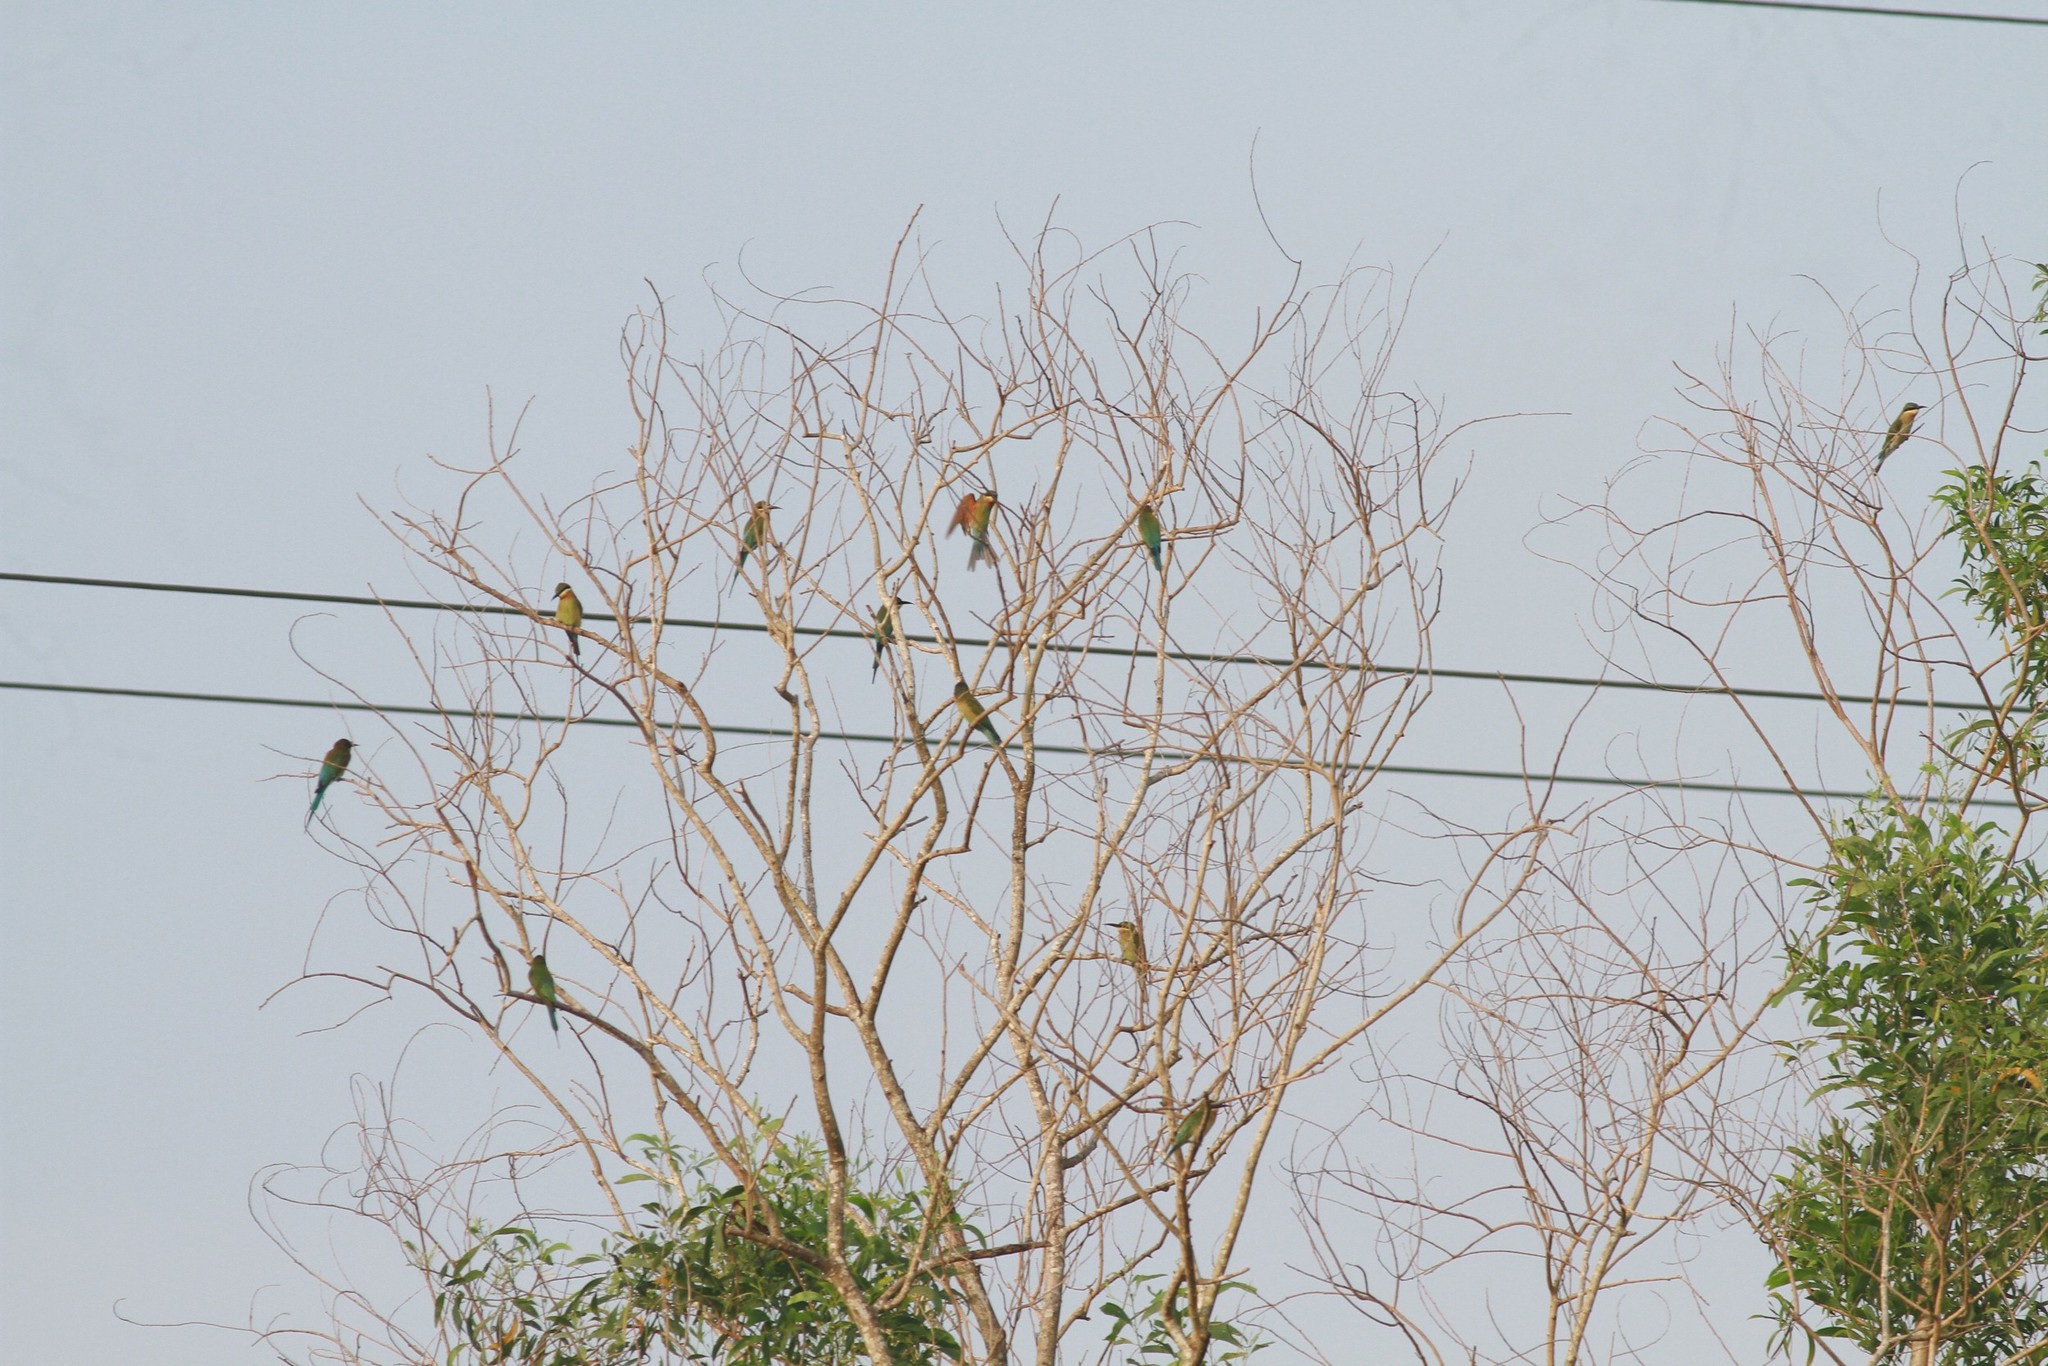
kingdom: Animalia
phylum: Chordata
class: Aves
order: Coraciiformes
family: Meropidae
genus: Merops
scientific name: Merops philippinus
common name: Blue-tailed bee-eater
